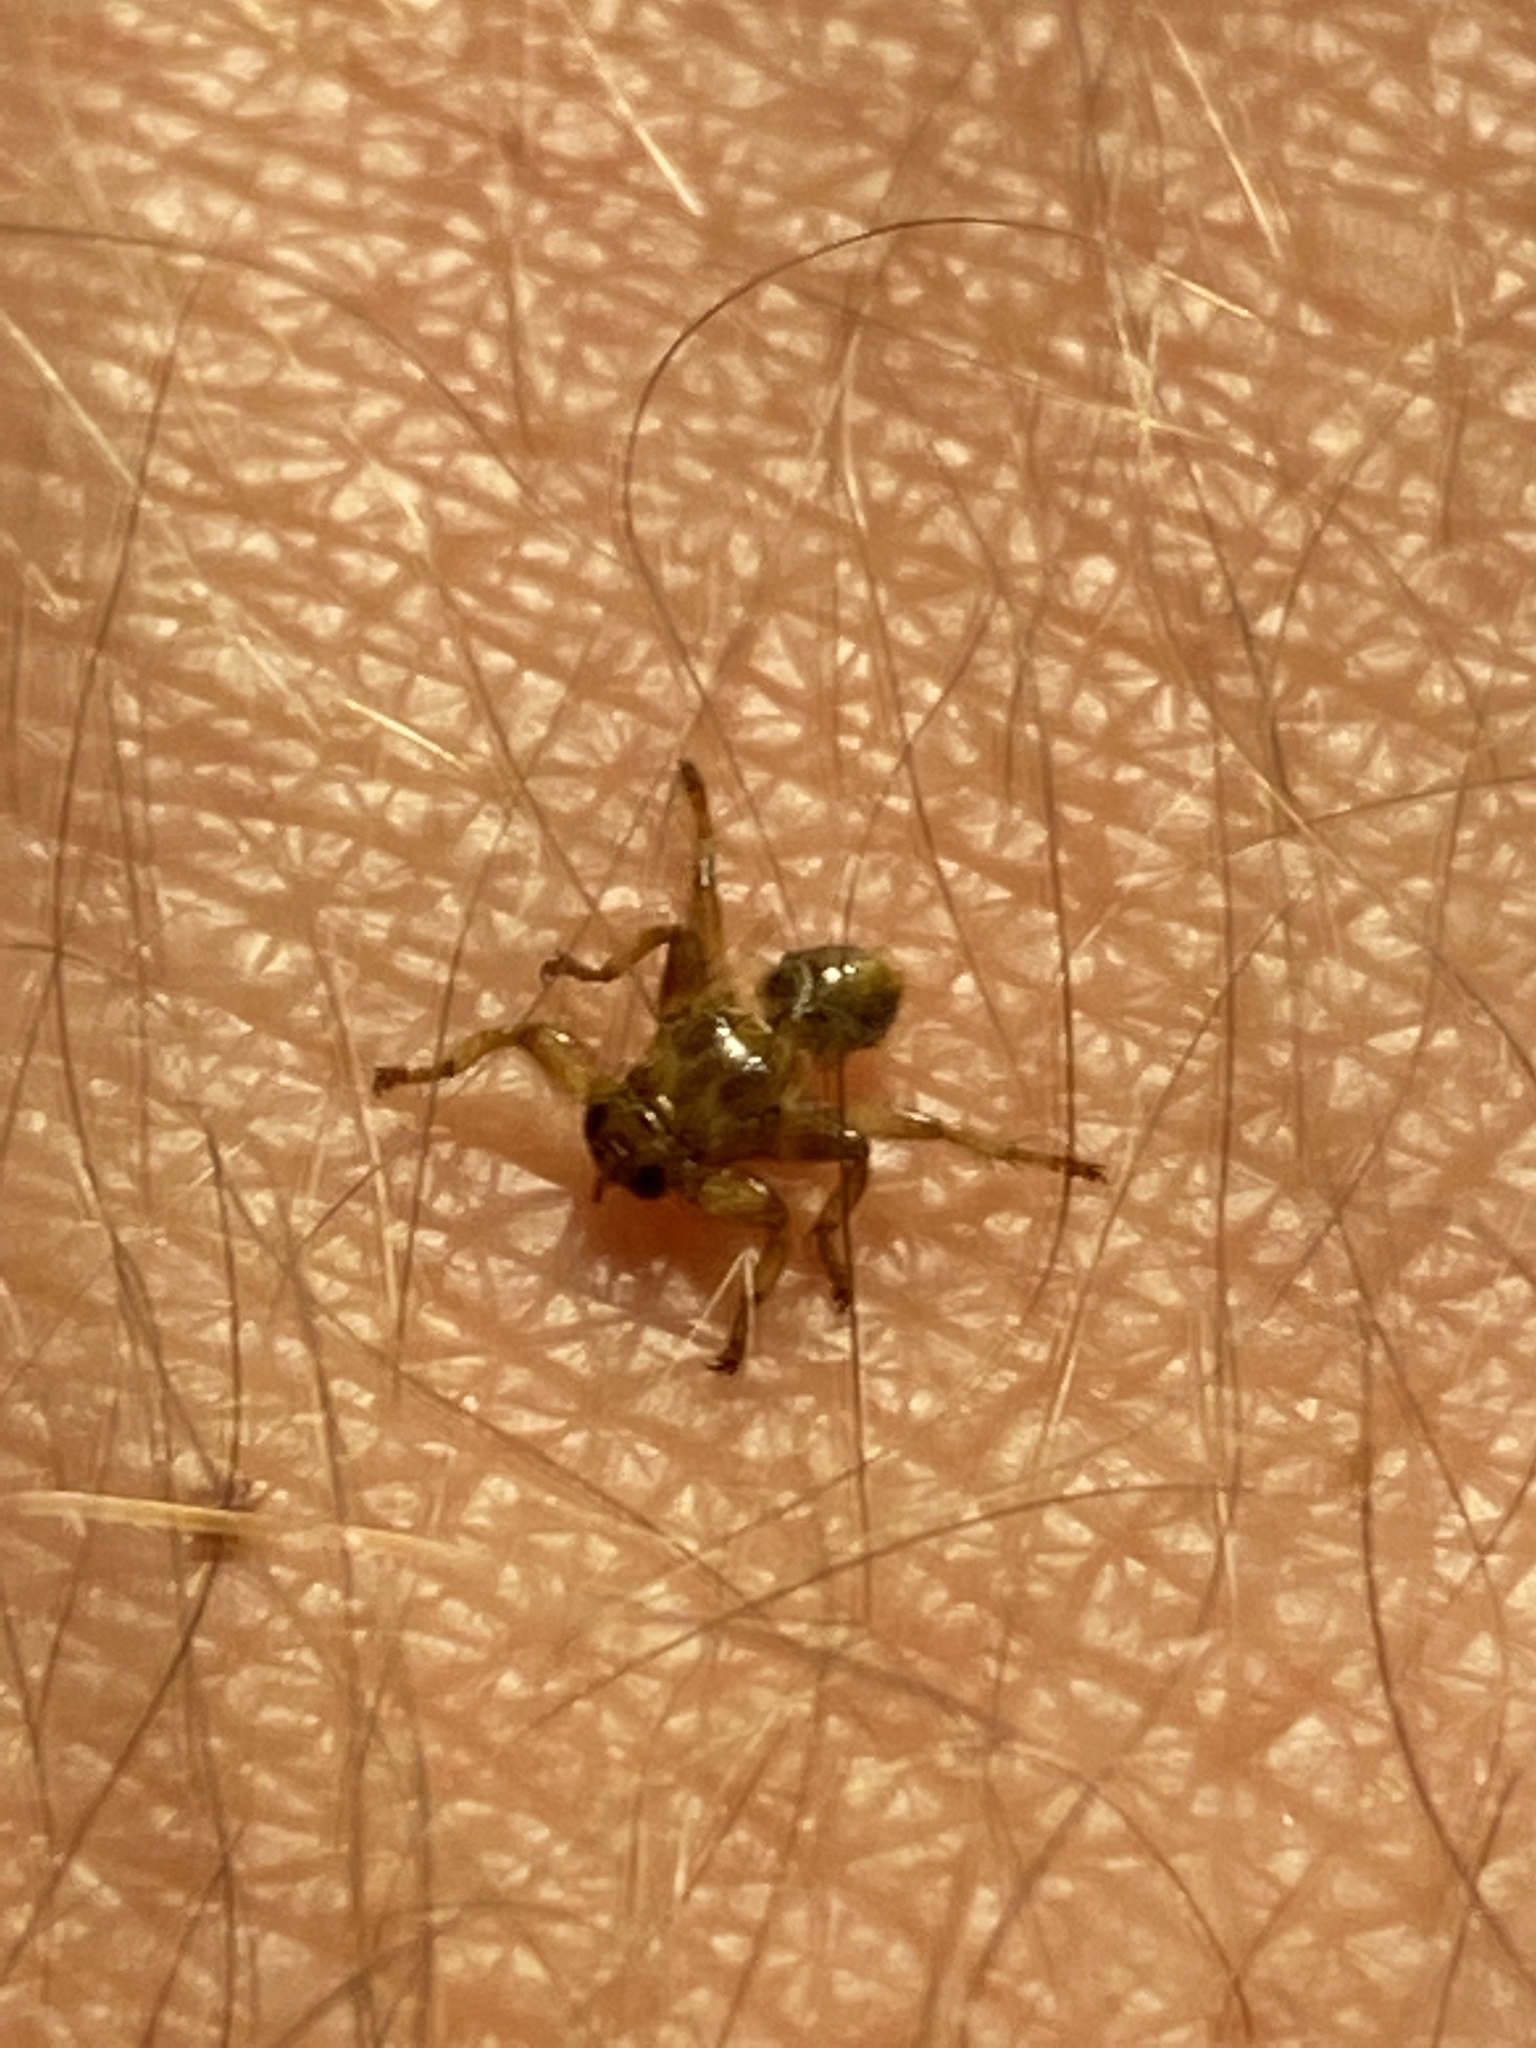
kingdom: Animalia
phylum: Arthropoda
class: Insecta
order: Diptera
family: Hippoboscidae
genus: Lipoptena
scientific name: Lipoptena cervi
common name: Deer ked
